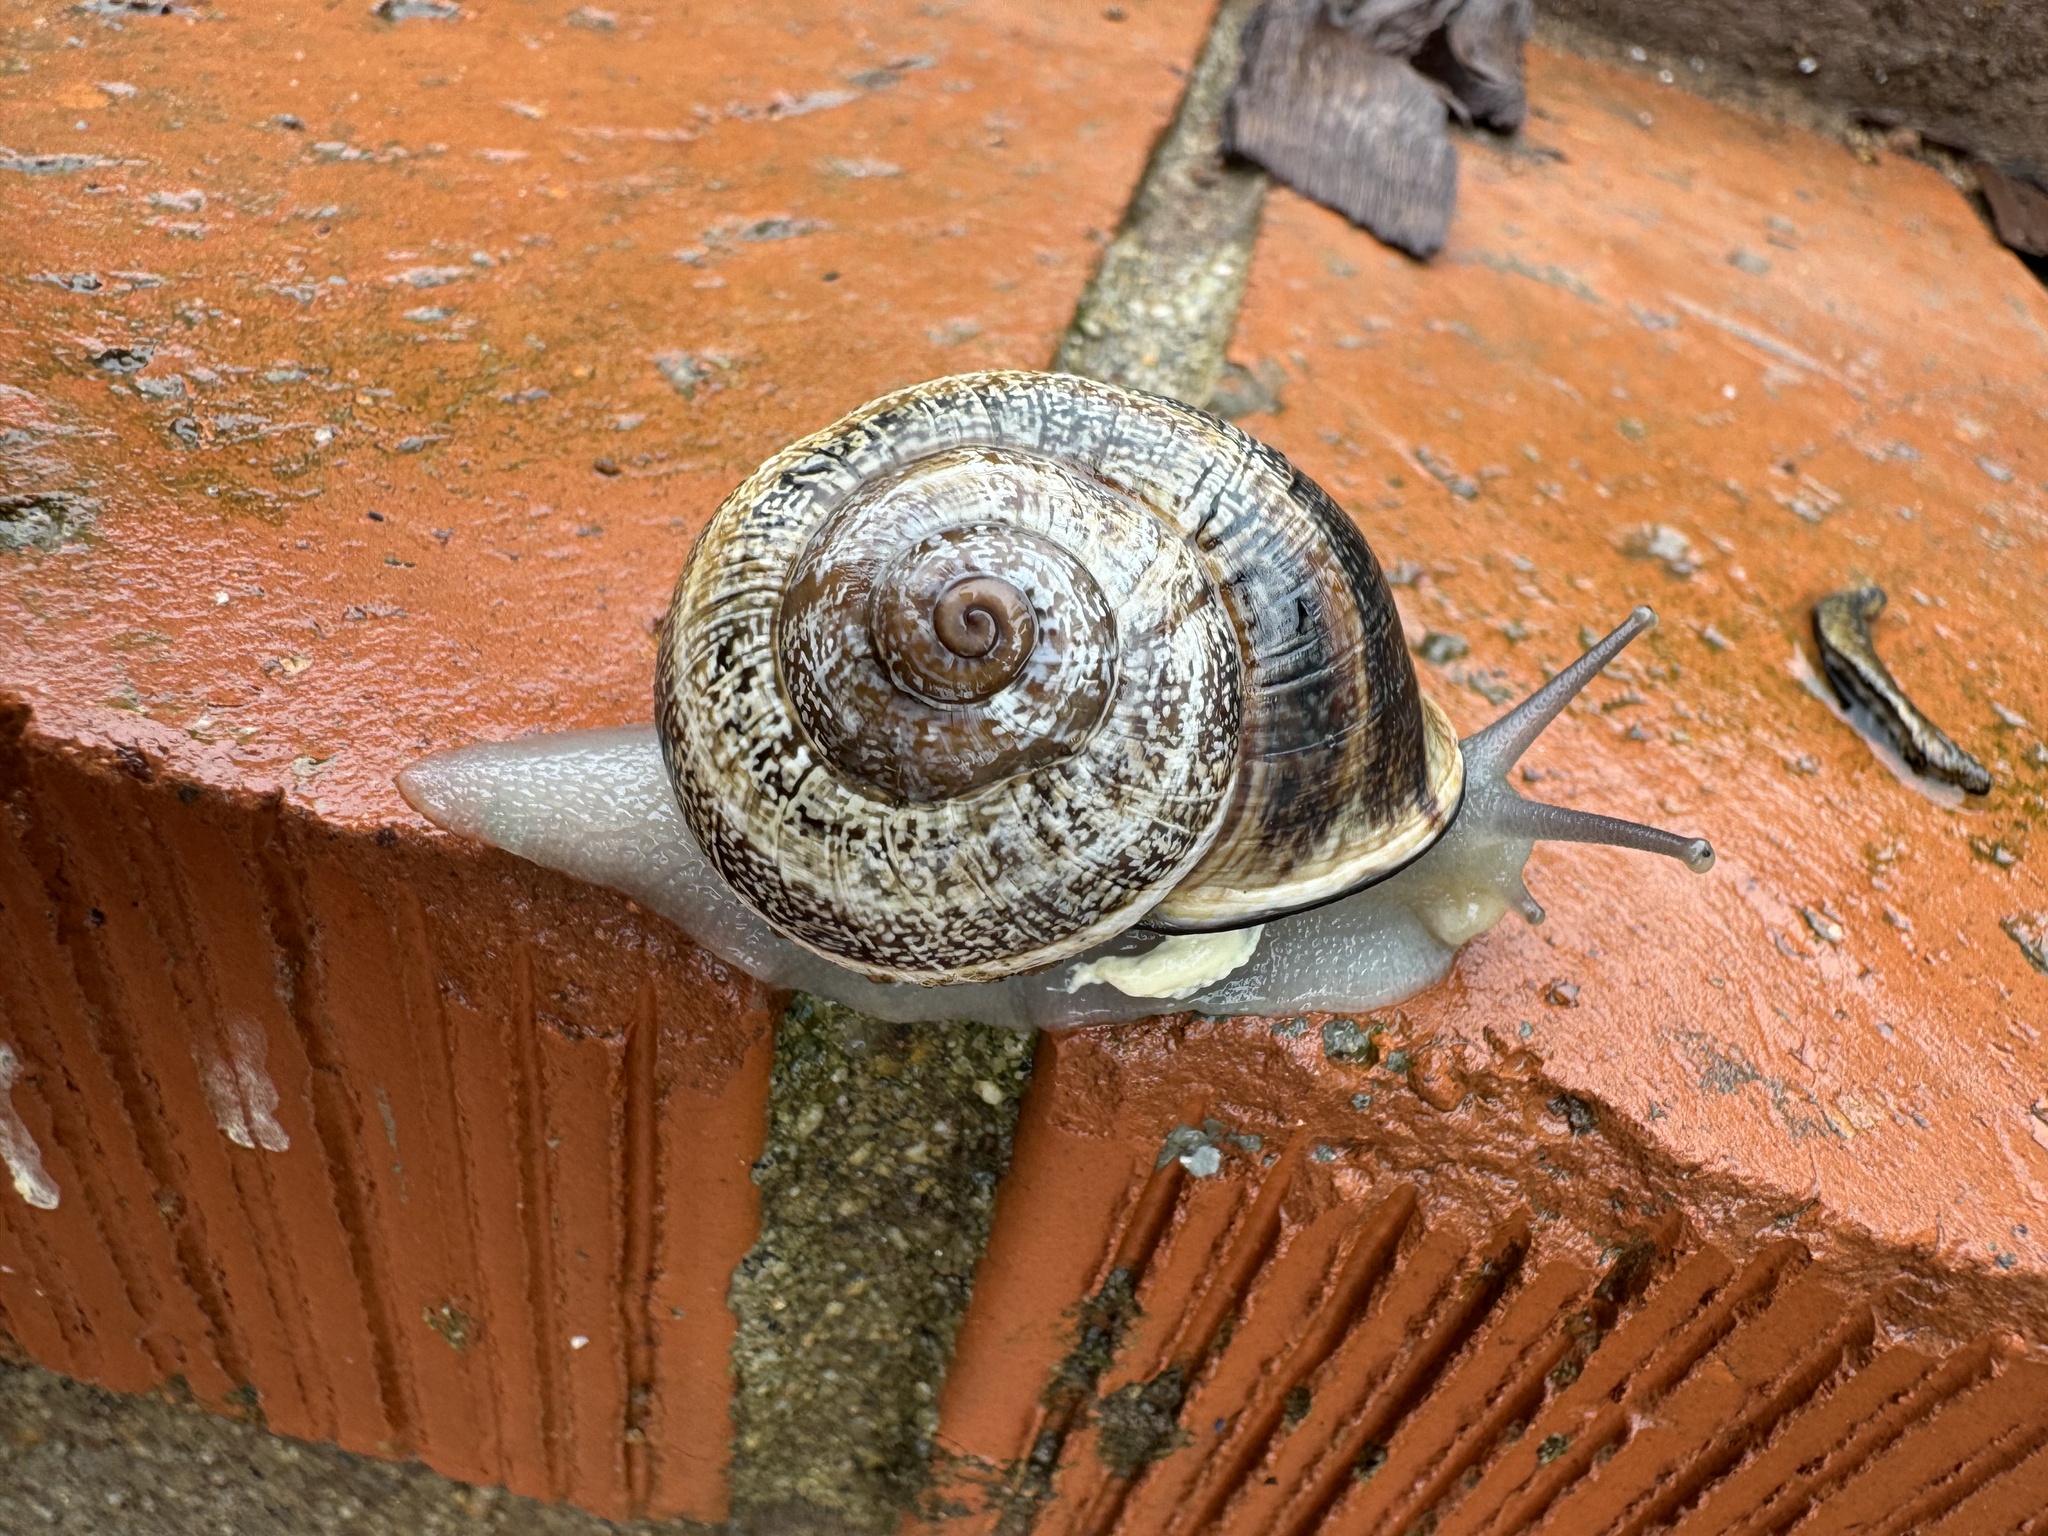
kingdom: Animalia
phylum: Mollusca
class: Gastropoda
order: Stylommatophora
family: Helicidae
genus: Otala
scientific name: Otala lactea
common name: Milk snail
